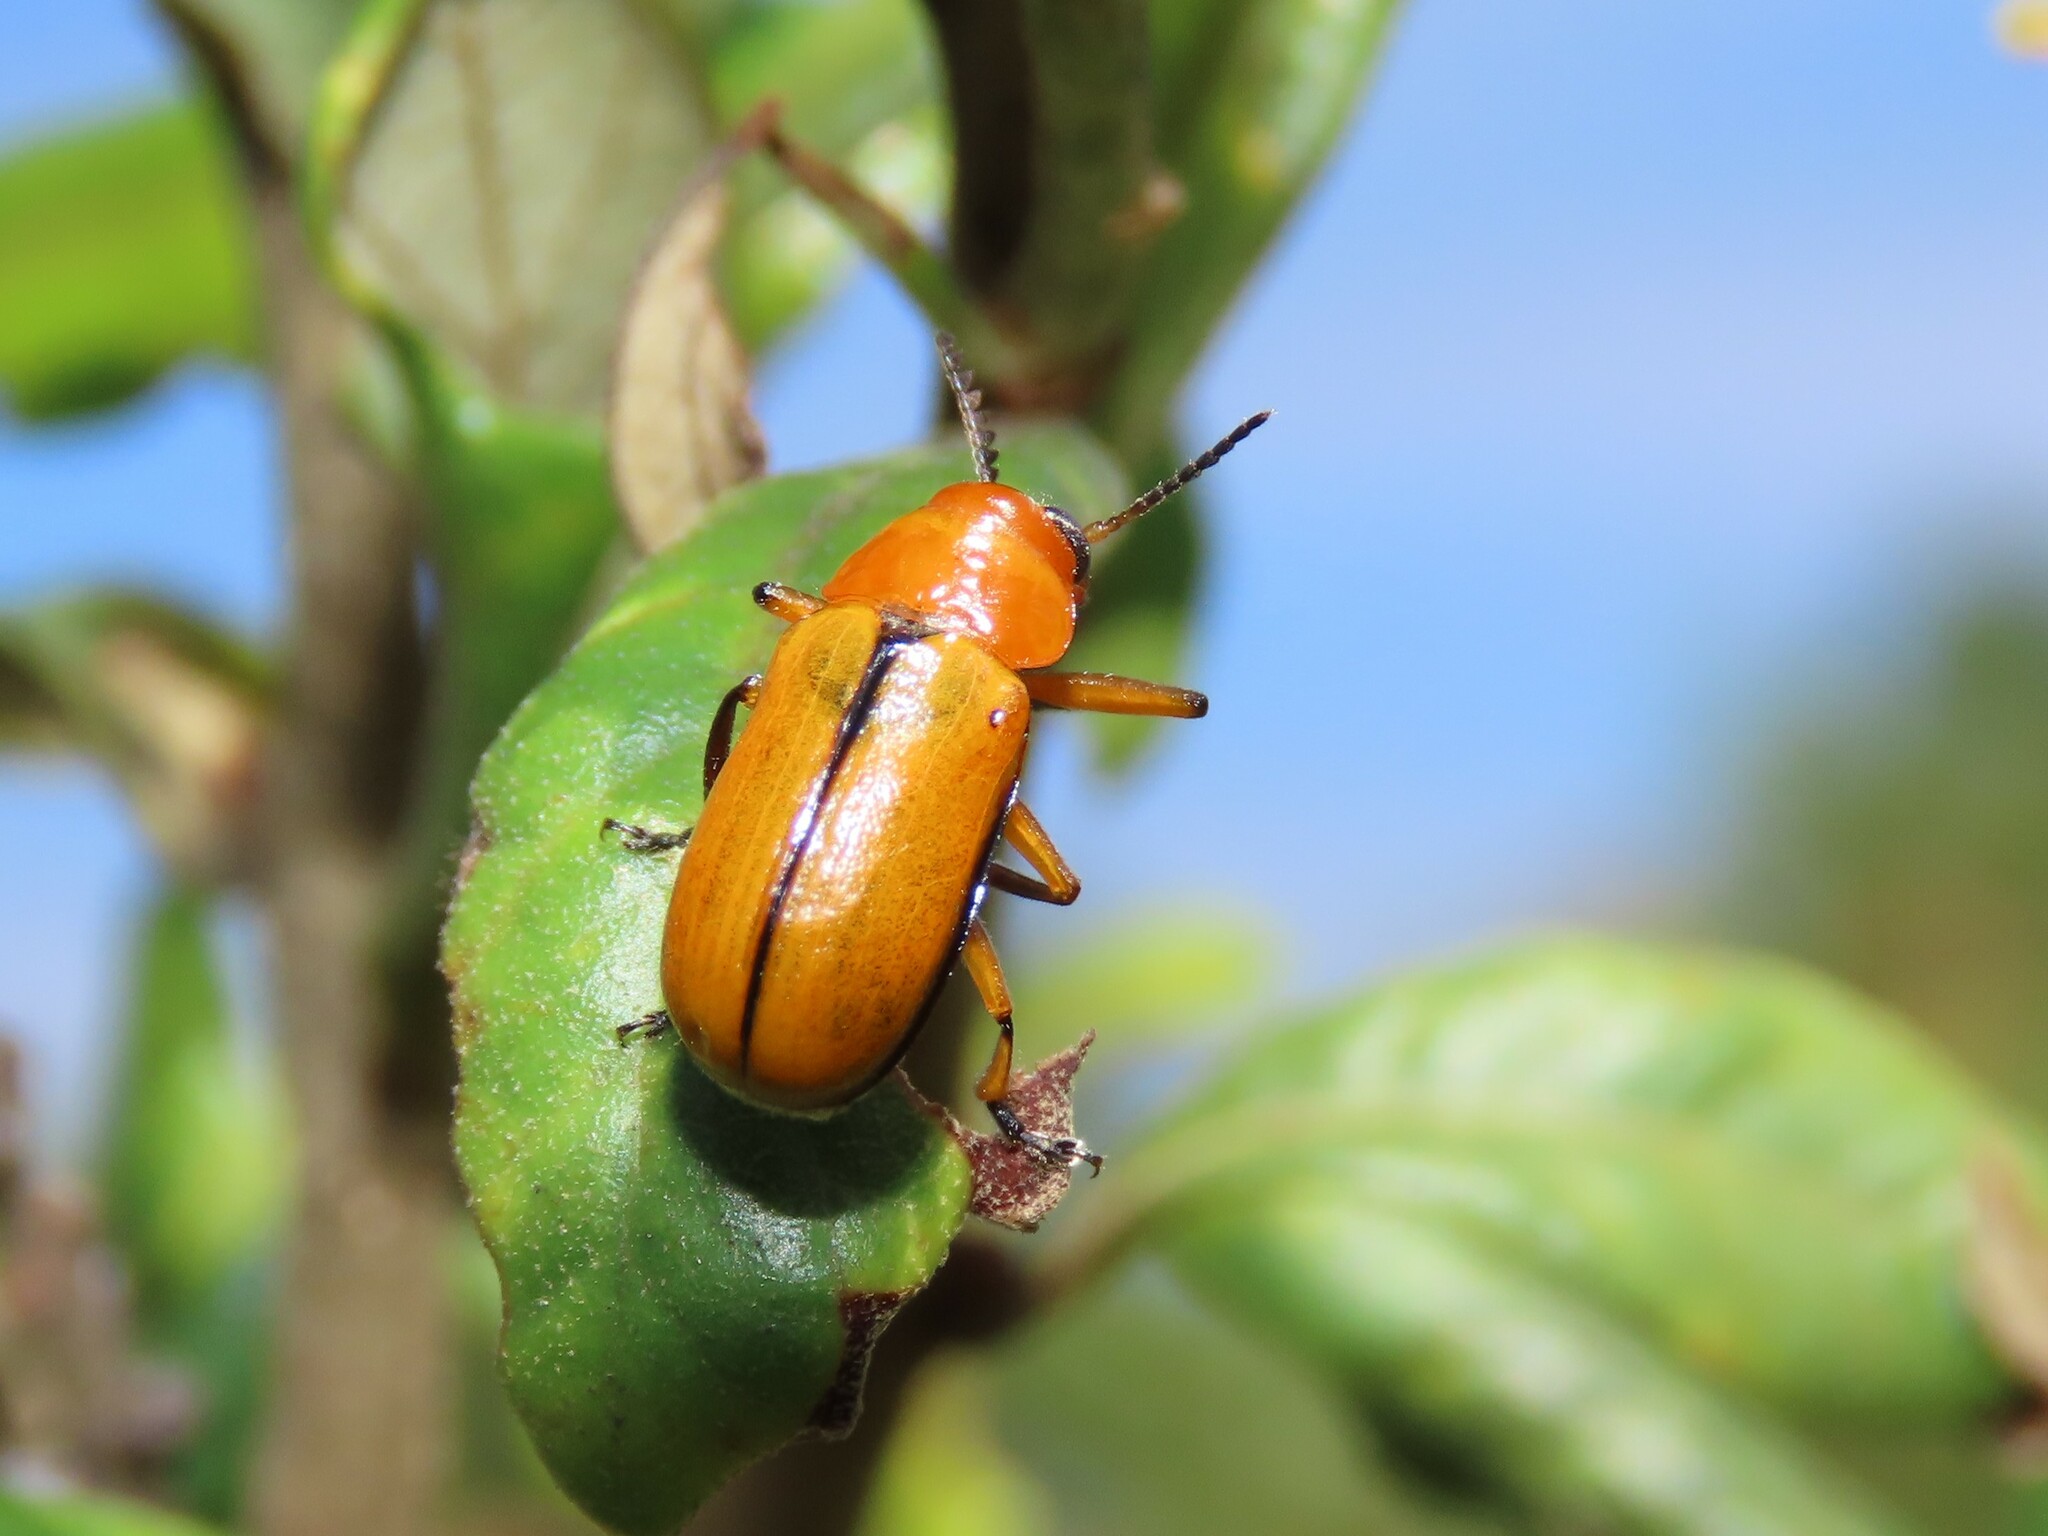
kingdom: Animalia
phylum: Arthropoda
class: Insecta
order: Coleoptera
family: Chrysomelidae
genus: Anomoea
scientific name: Anomoea laticlavia
